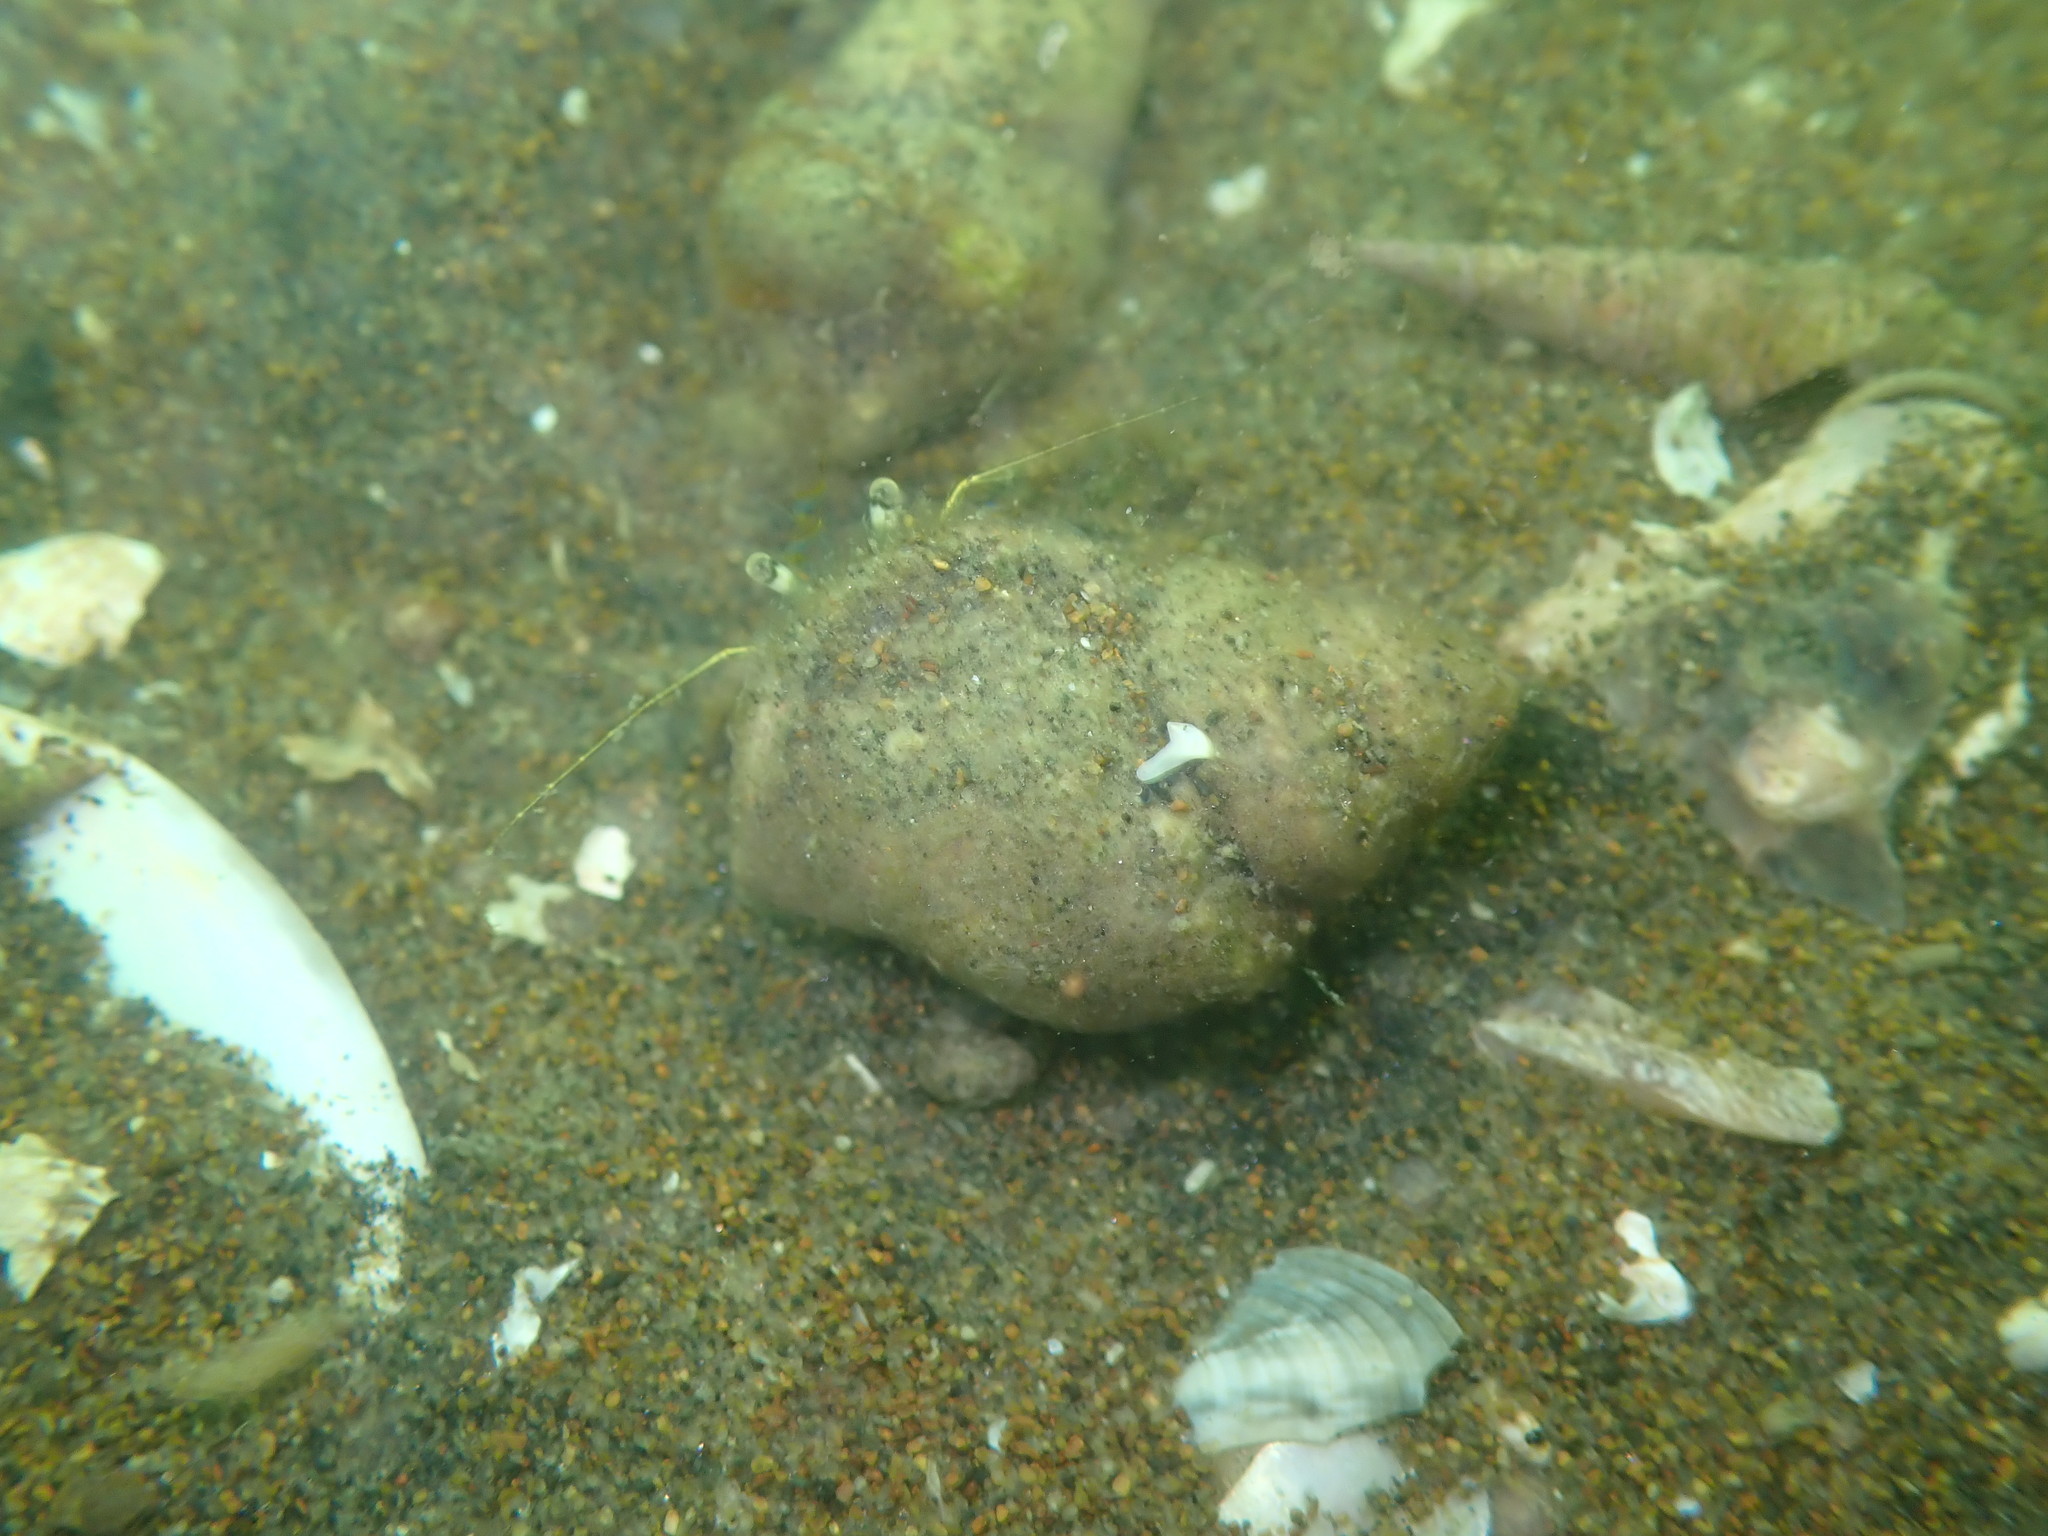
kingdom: Animalia
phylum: Mollusca
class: Gastropoda
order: Littorinimorpha
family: Struthiolariidae
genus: Pelicaria
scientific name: Pelicaria vermis
